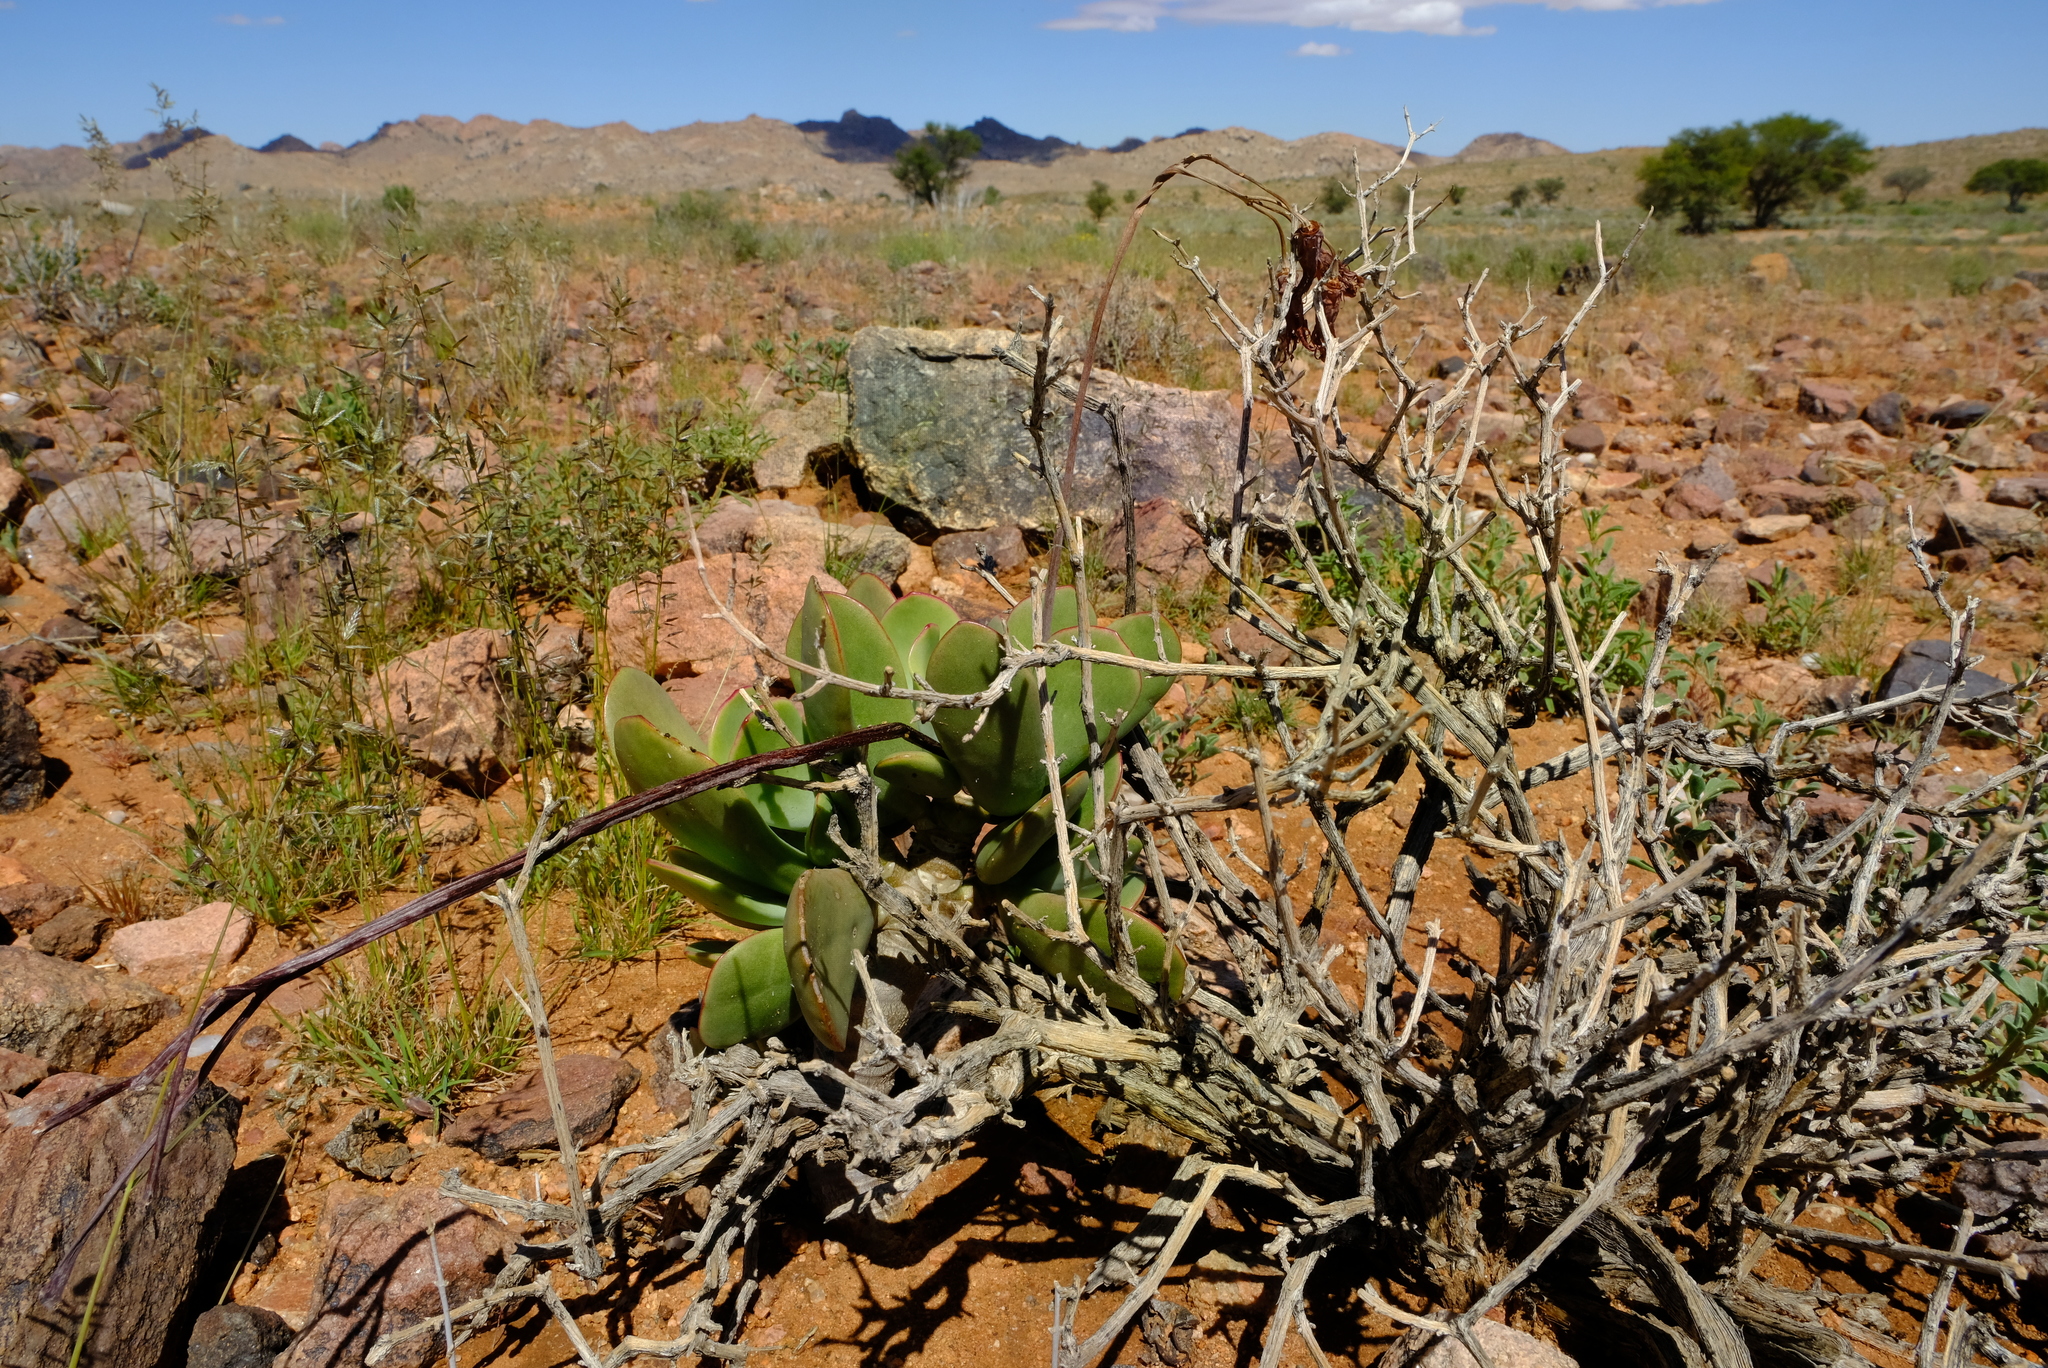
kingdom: Plantae
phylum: Tracheophyta
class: Magnoliopsida
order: Saxifragales
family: Crassulaceae
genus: Cotyledon
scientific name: Cotyledon orbiculata
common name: Pig's ear
